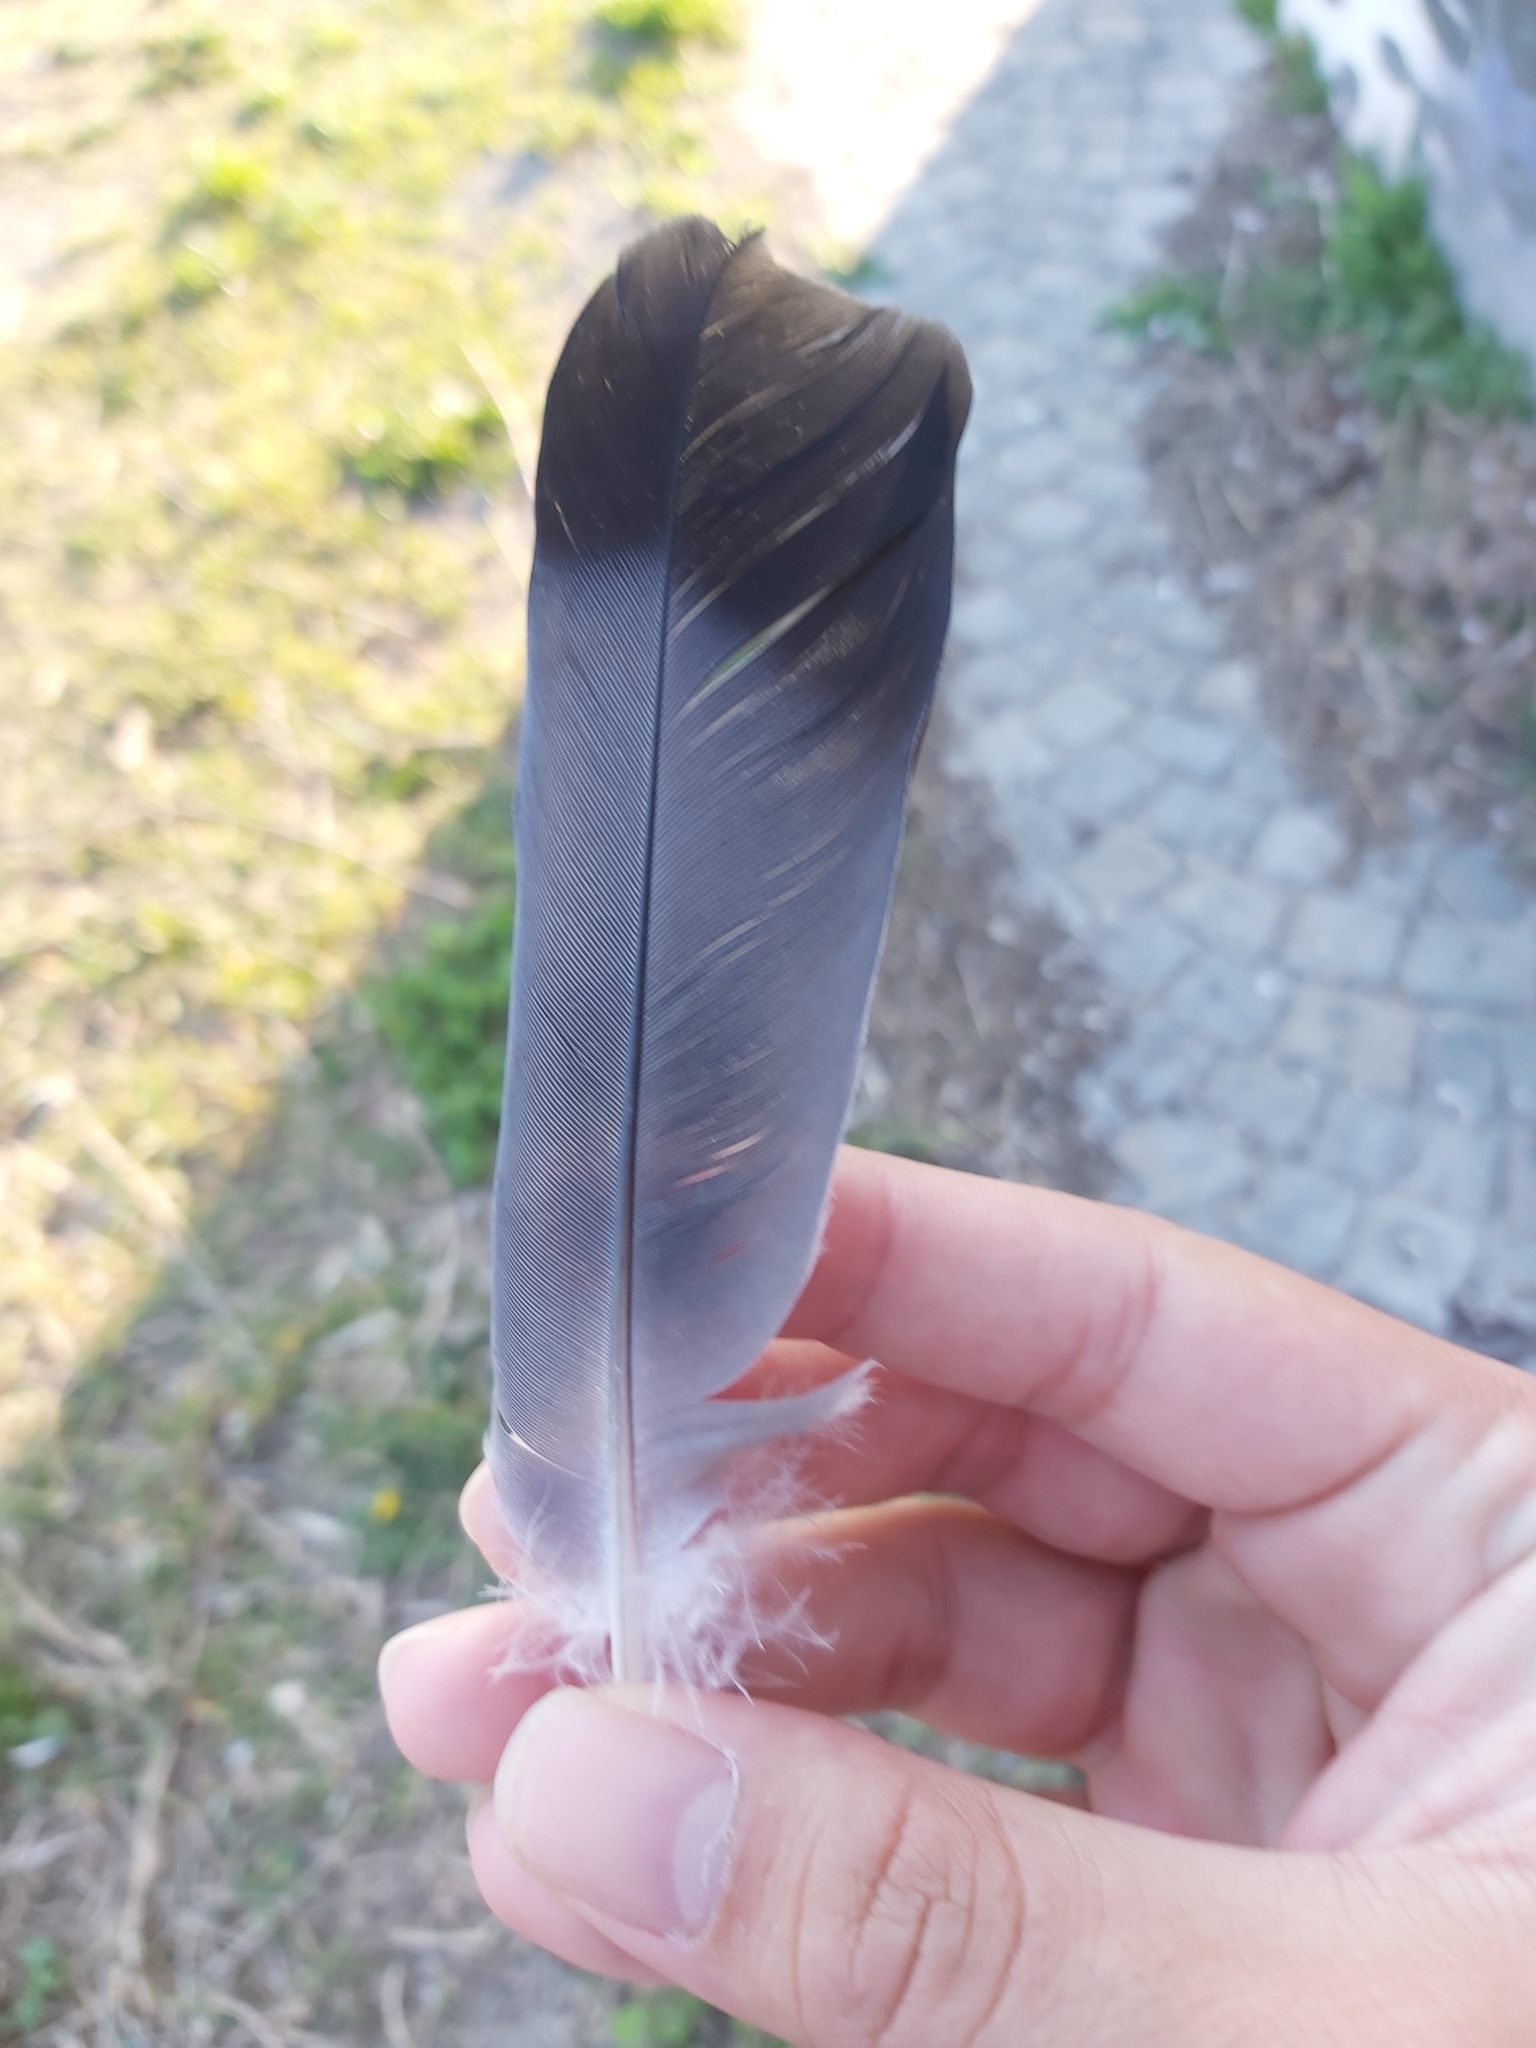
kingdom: Animalia
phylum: Chordata
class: Aves
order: Columbiformes
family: Columbidae
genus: Columba
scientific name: Columba livia
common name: Rock pigeon
